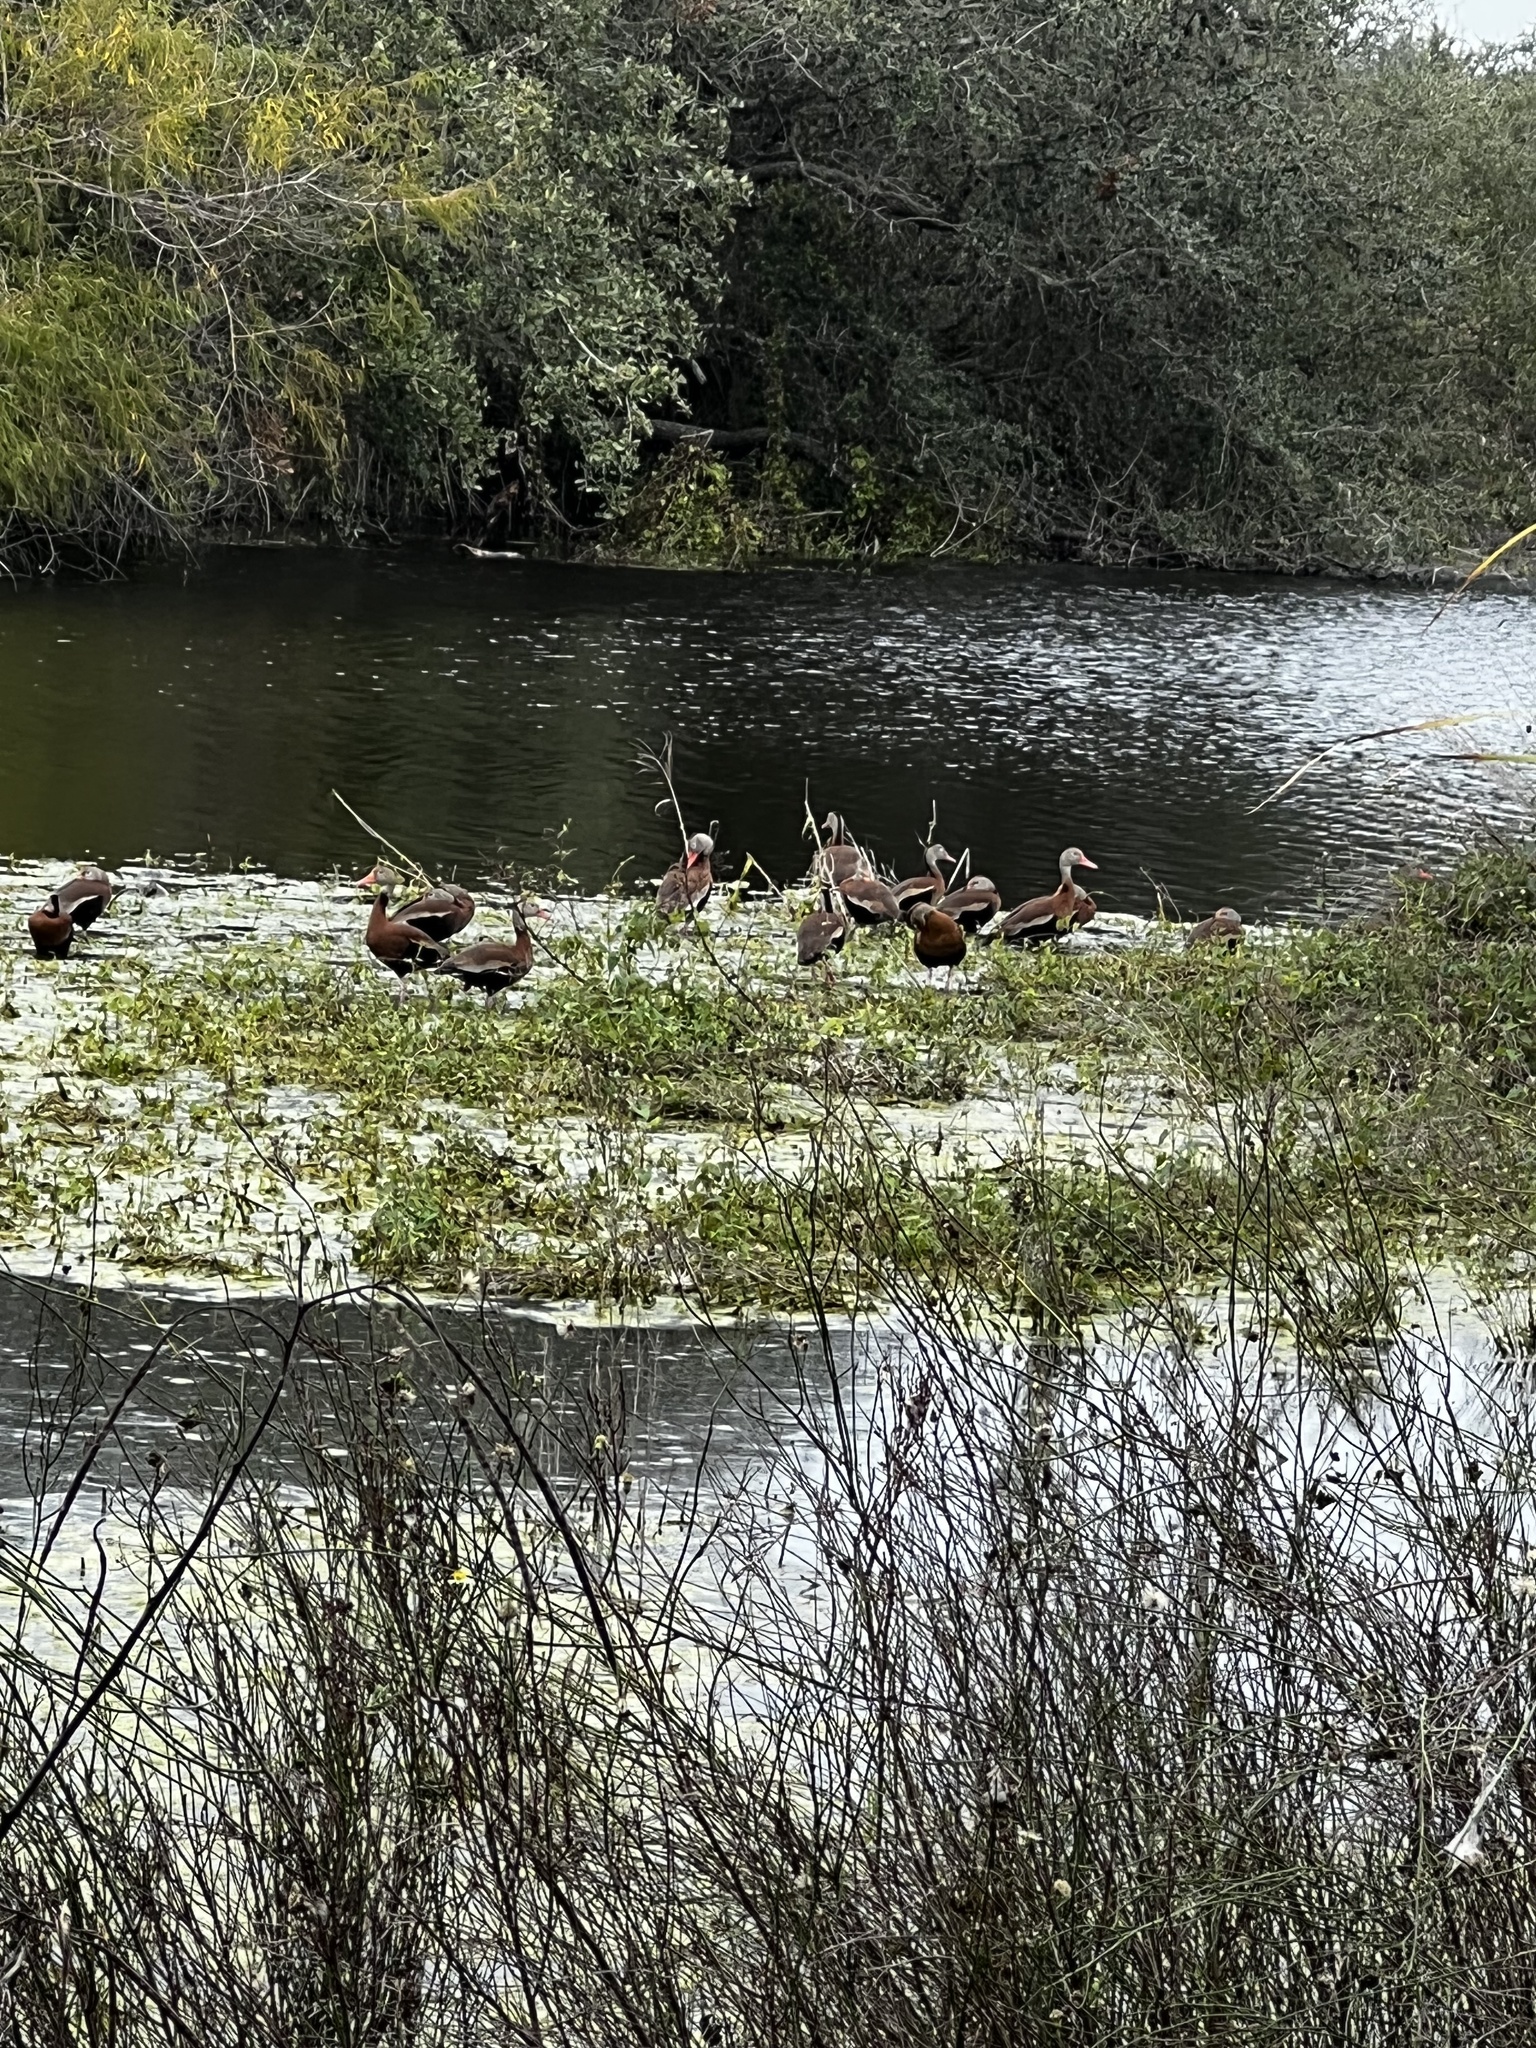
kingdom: Animalia
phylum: Chordata
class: Aves
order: Anseriformes
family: Anatidae
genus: Dendrocygna
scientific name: Dendrocygna autumnalis
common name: Black-bellied whistling duck
